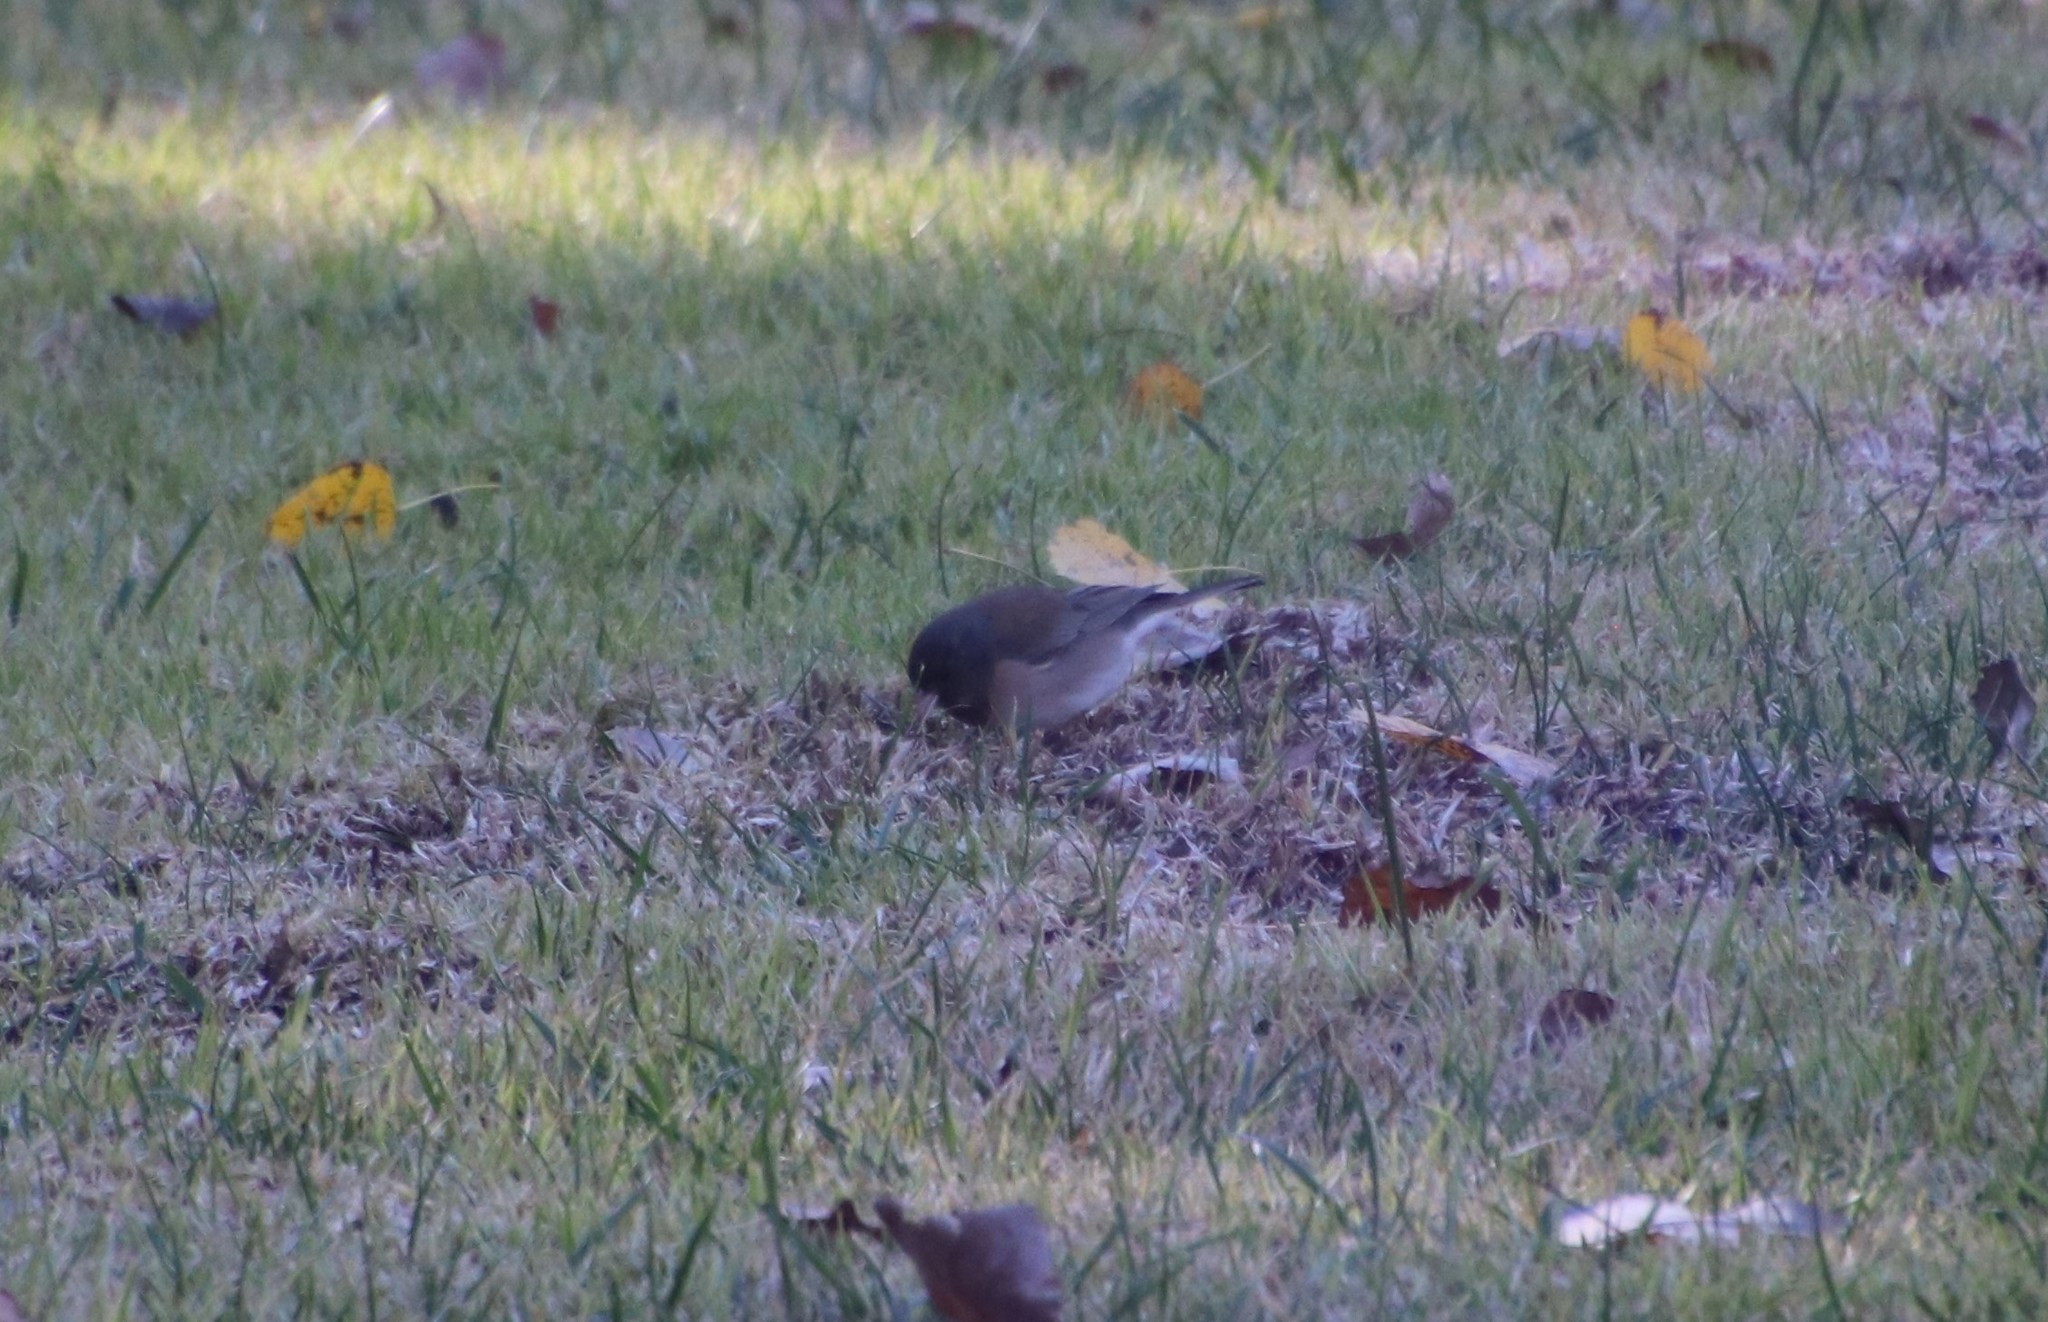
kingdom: Animalia
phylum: Chordata
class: Aves
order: Passeriformes
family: Passerellidae
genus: Junco
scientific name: Junco hyemalis
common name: Dark-eyed junco
